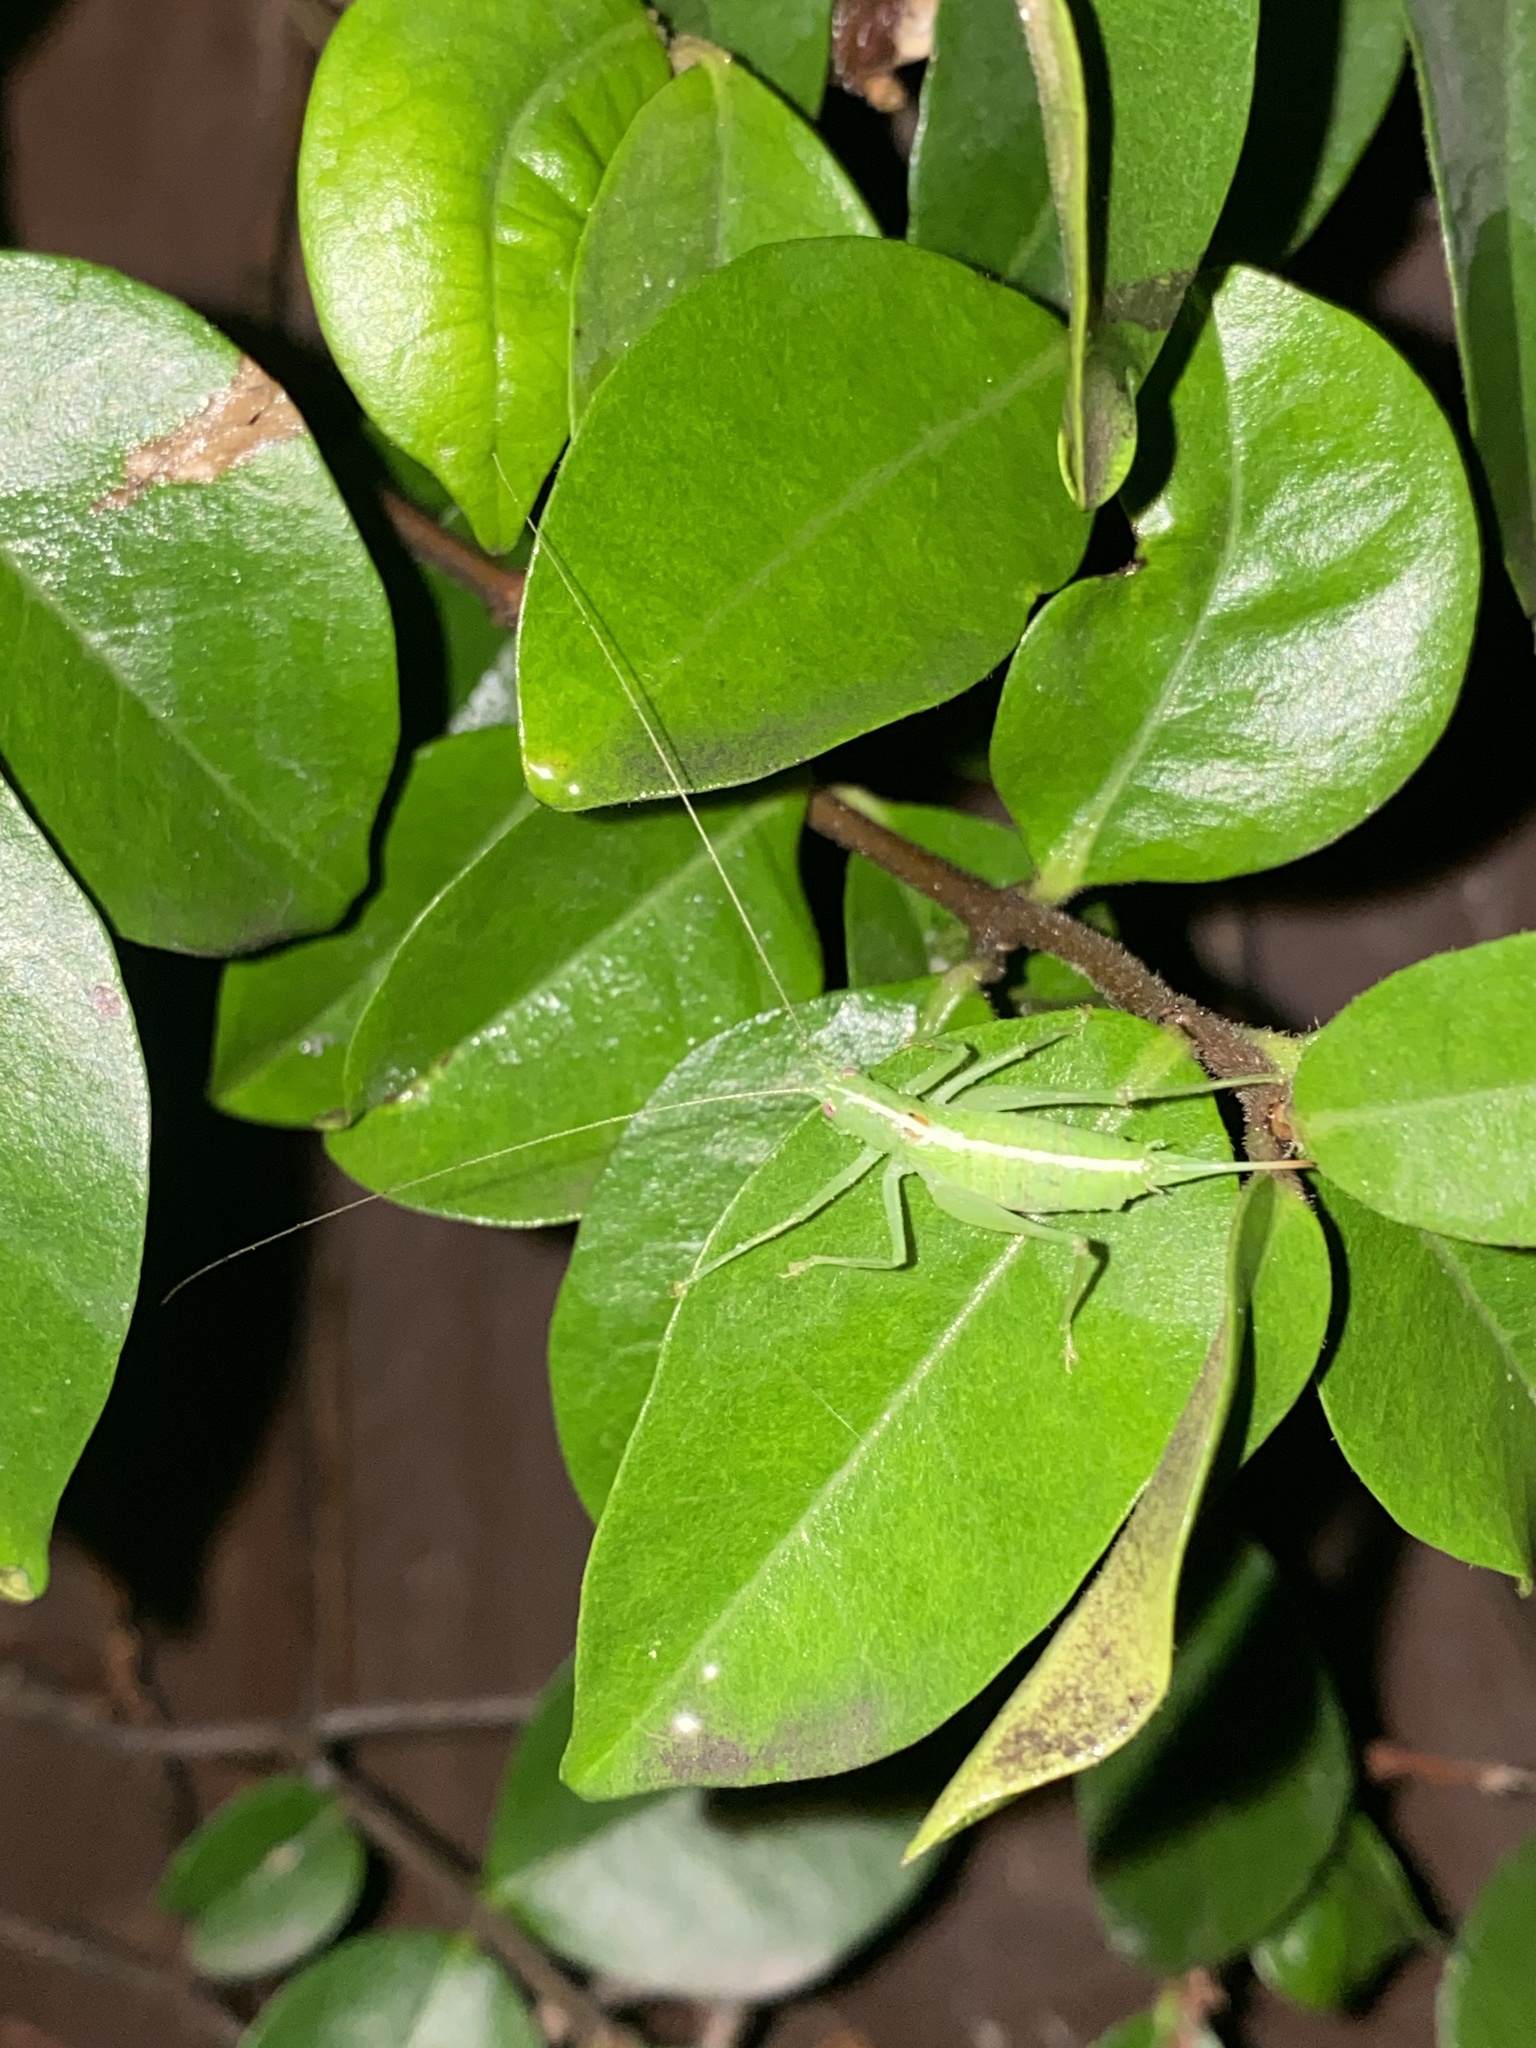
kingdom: Animalia
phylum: Arthropoda
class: Insecta
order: Orthoptera
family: Tettigoniidae
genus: Meconema
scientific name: Meconema meridionale
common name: Southern oak bush-cricket
